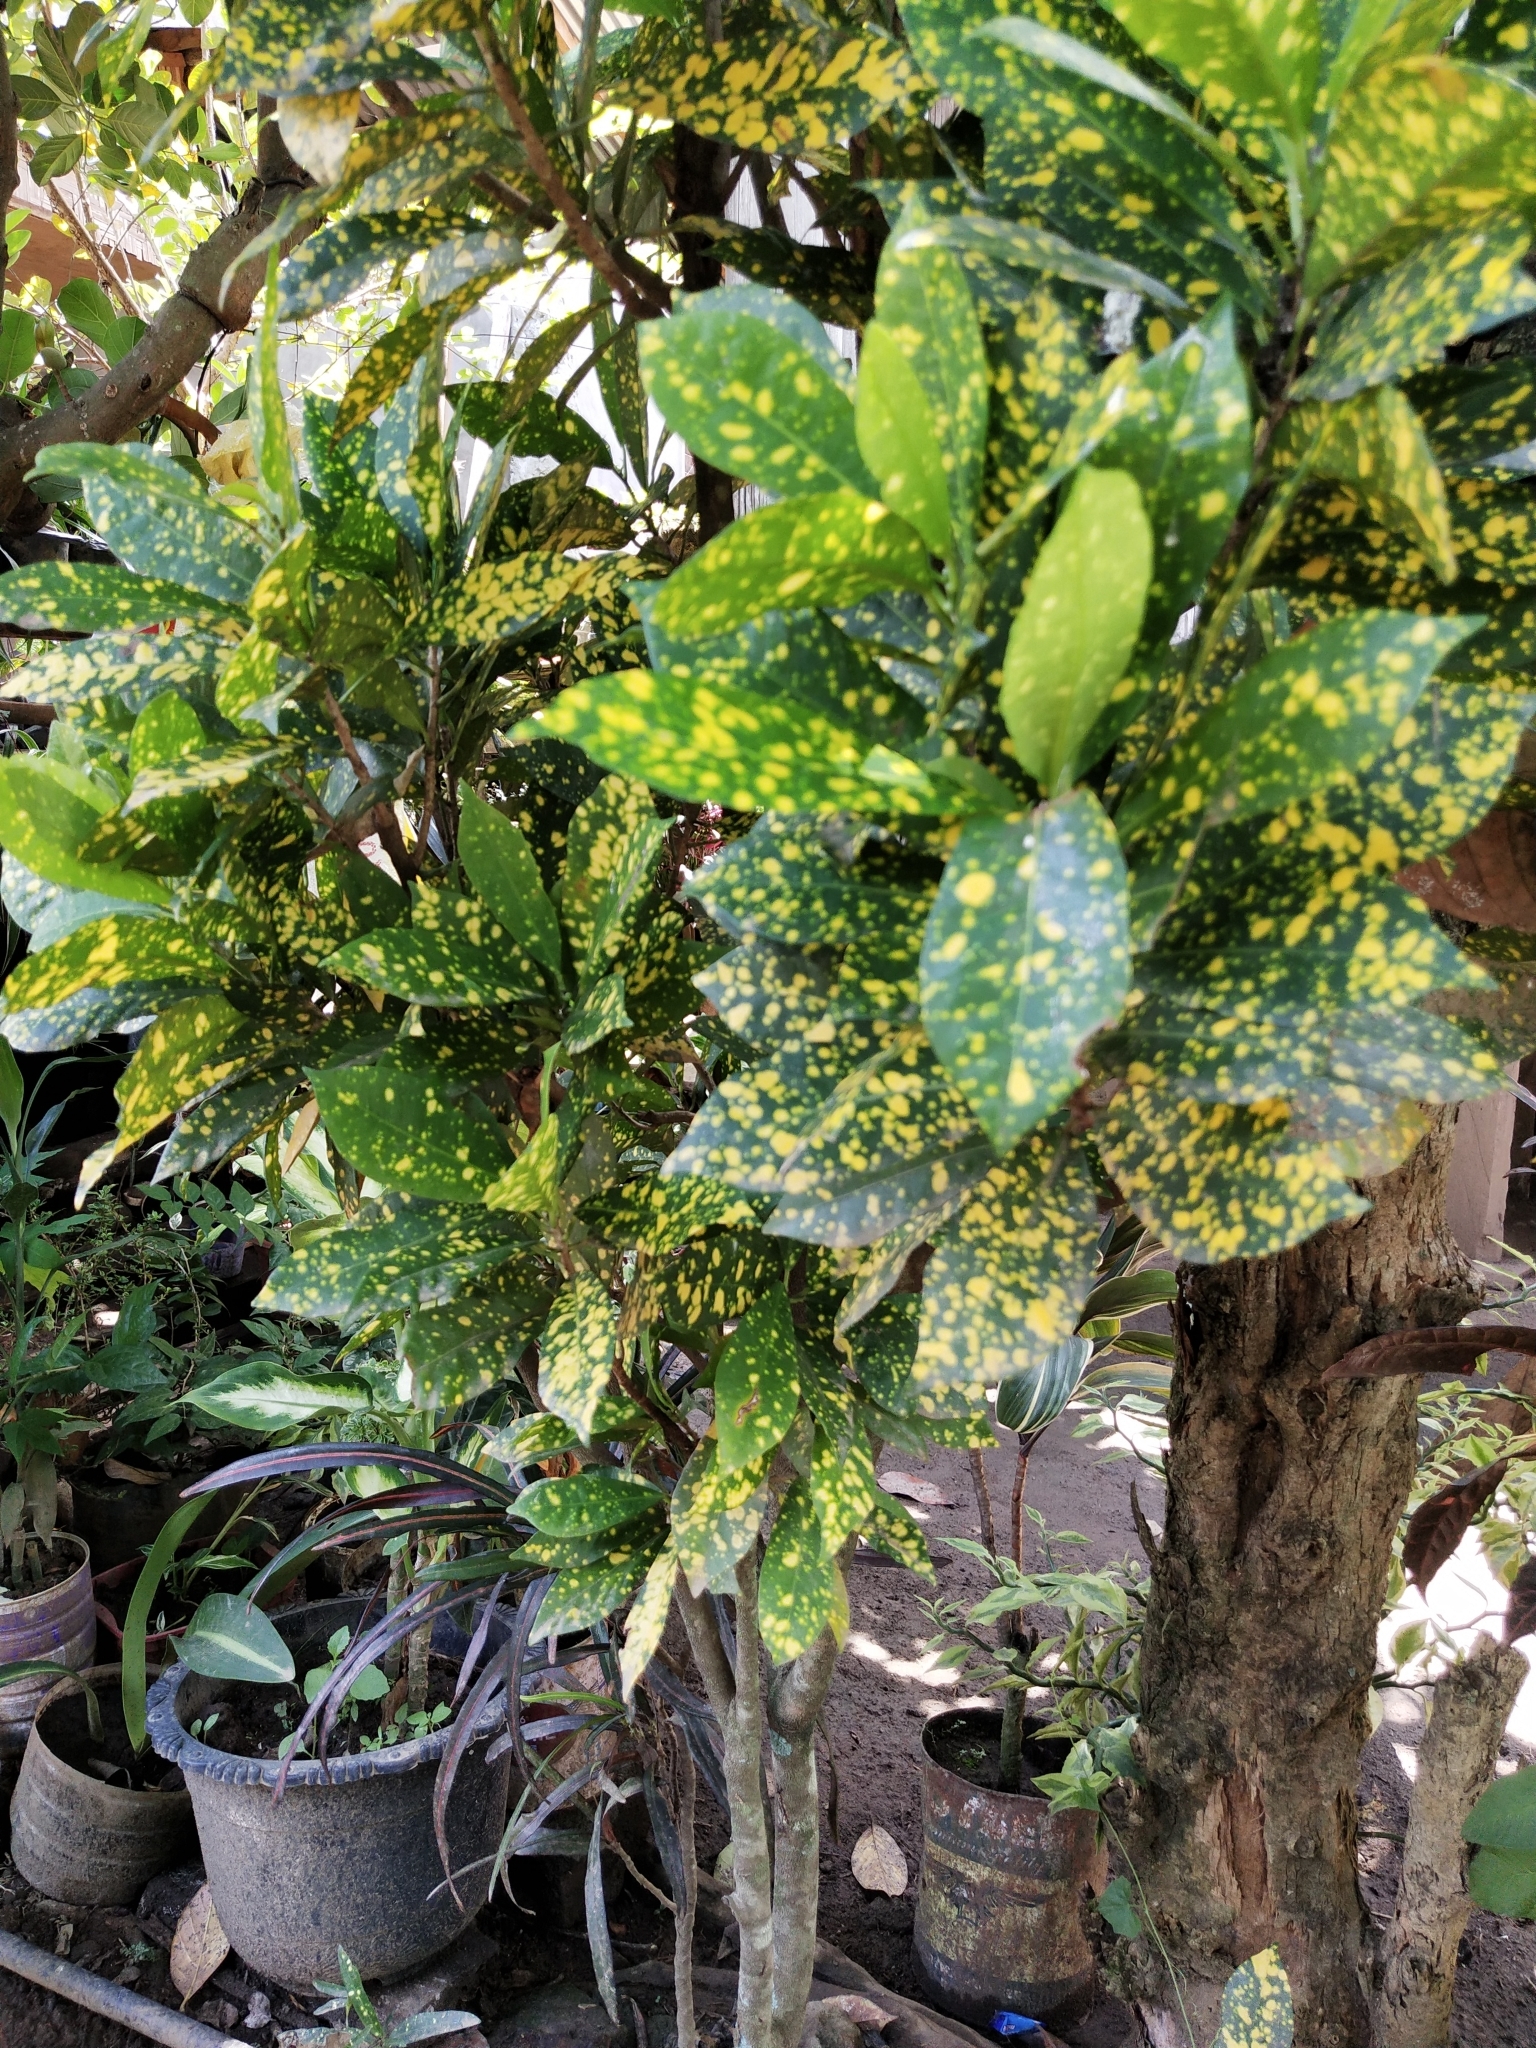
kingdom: Plantae
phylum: Tracheophyta
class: Magnoliopsida
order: Malpighiales
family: Euphorbiaceae
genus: Codiaeum
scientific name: Codiaeum variegatum
